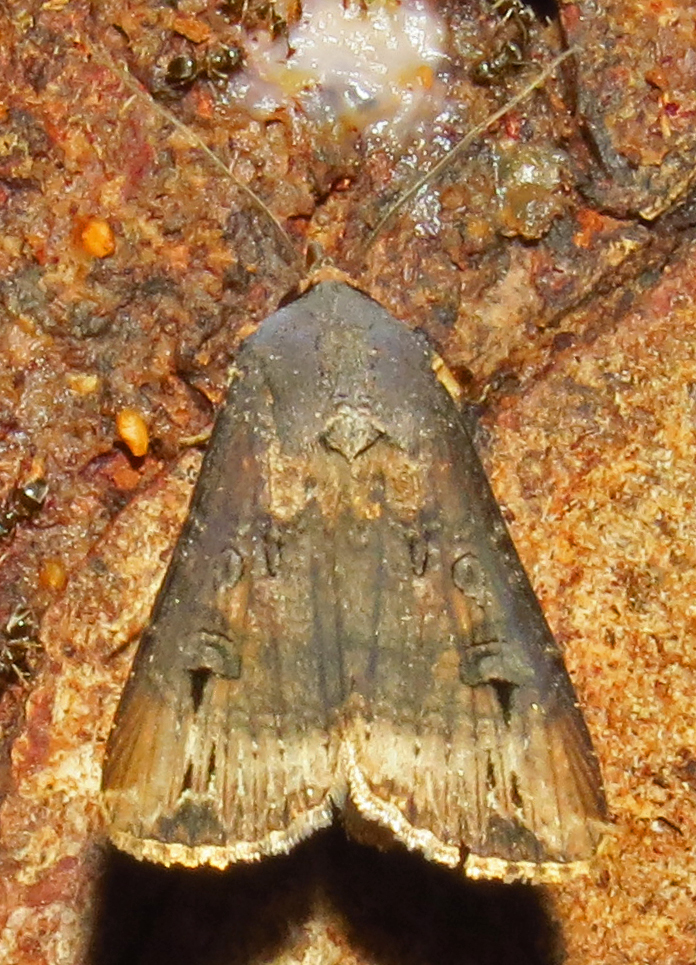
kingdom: Animalia
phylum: Arthropoda
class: Insecta
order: Lepidoptera
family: Noctuidae
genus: Agrotis
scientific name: Agrotis ipsilon
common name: Dark sword-grass
